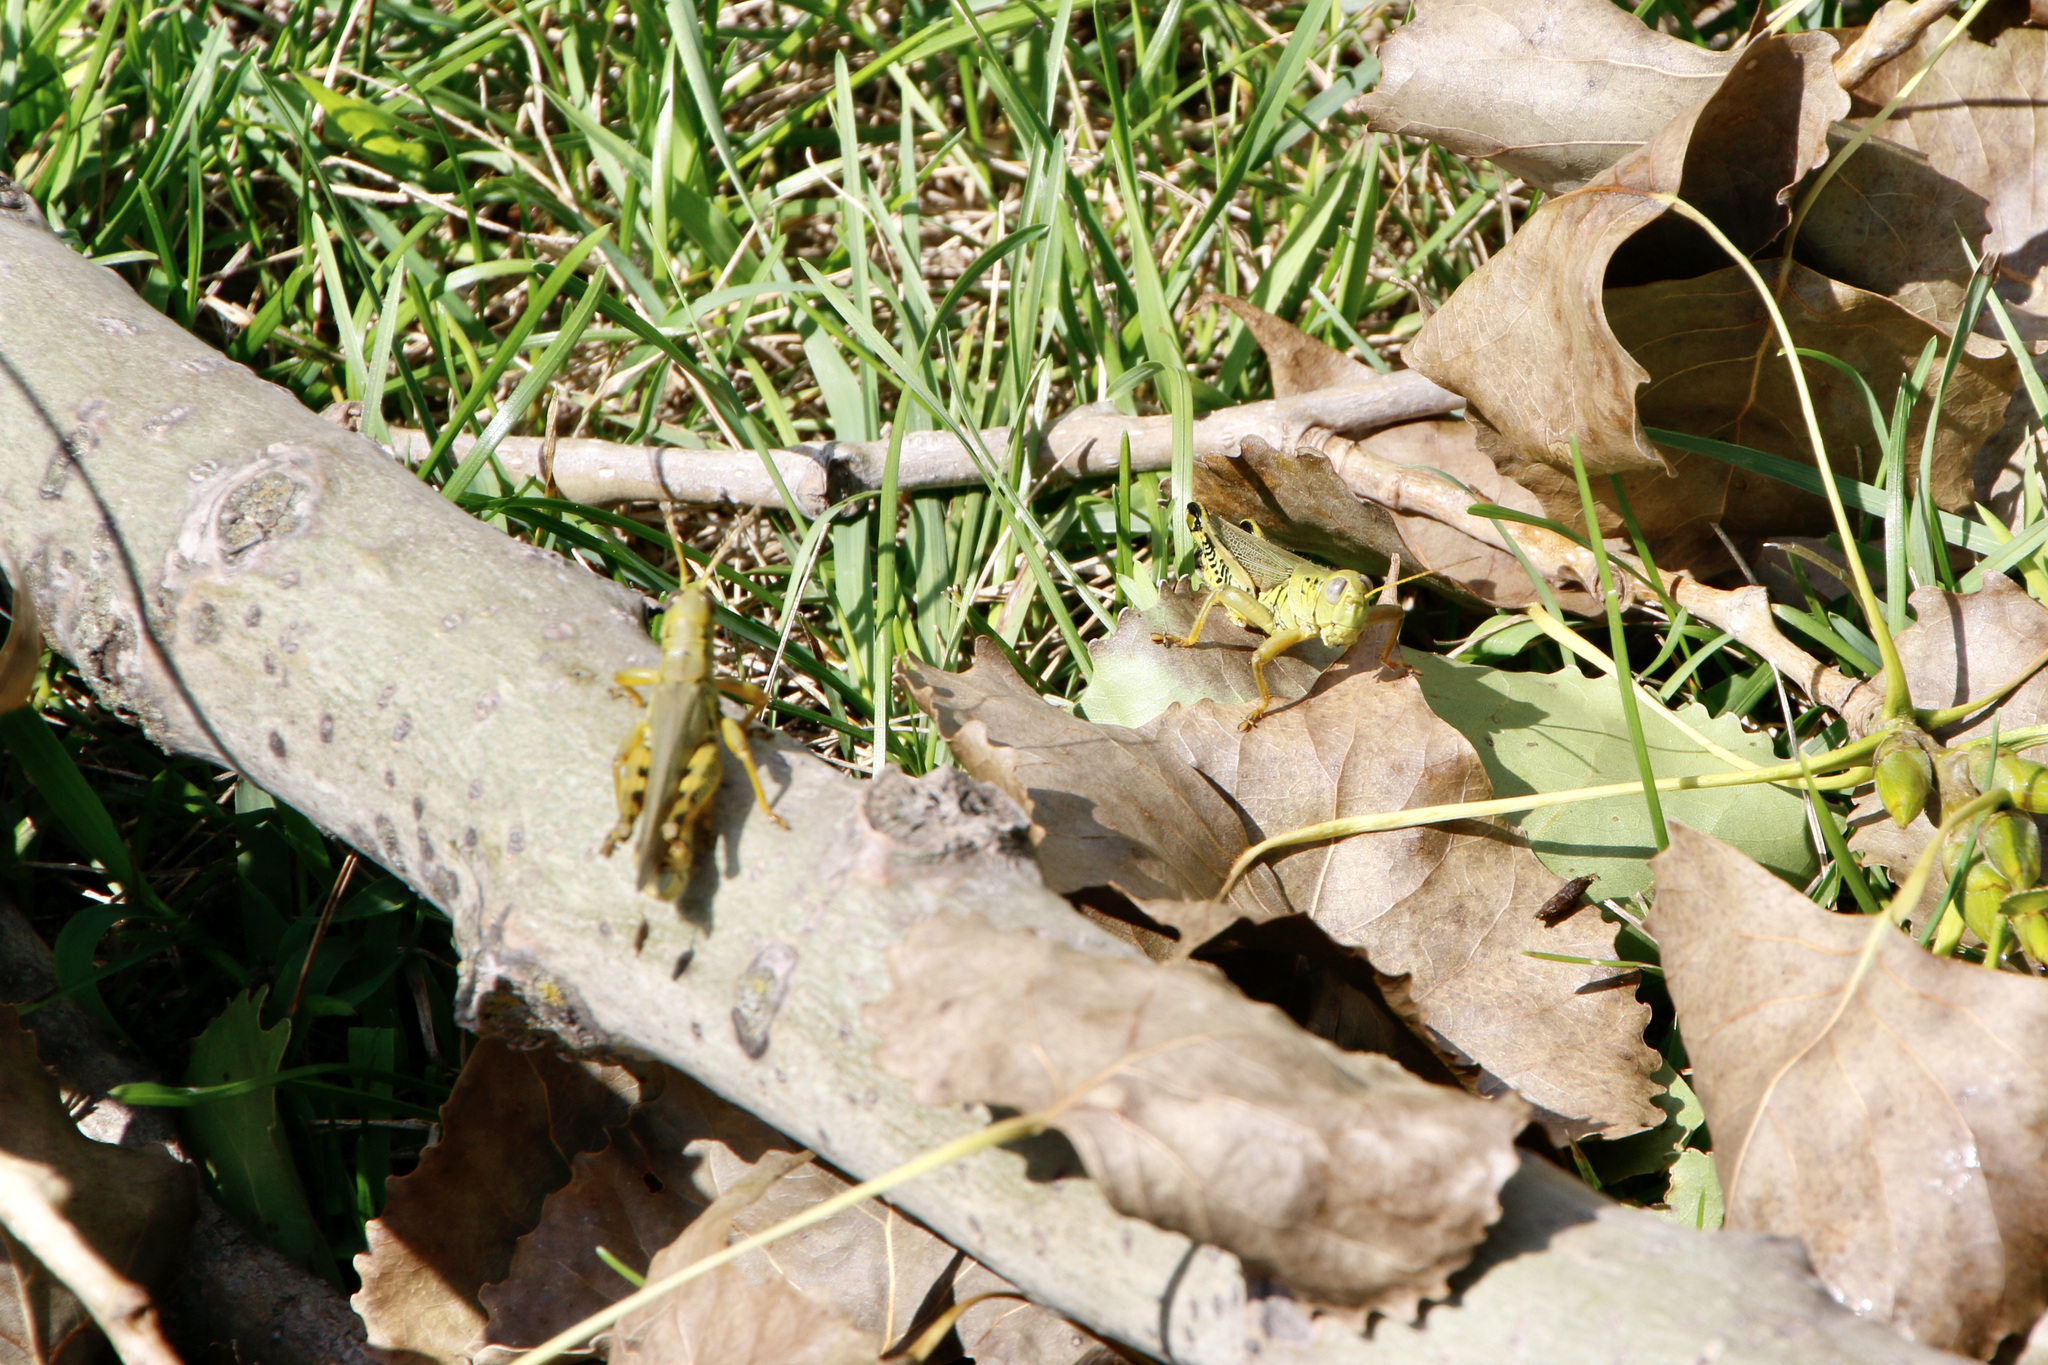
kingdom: Animalia
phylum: Arthropoda
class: Insecta
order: Orthoptera
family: Acrididae
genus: Melanoplus
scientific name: Melanoplus differentialis
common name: Differential grasshopper
